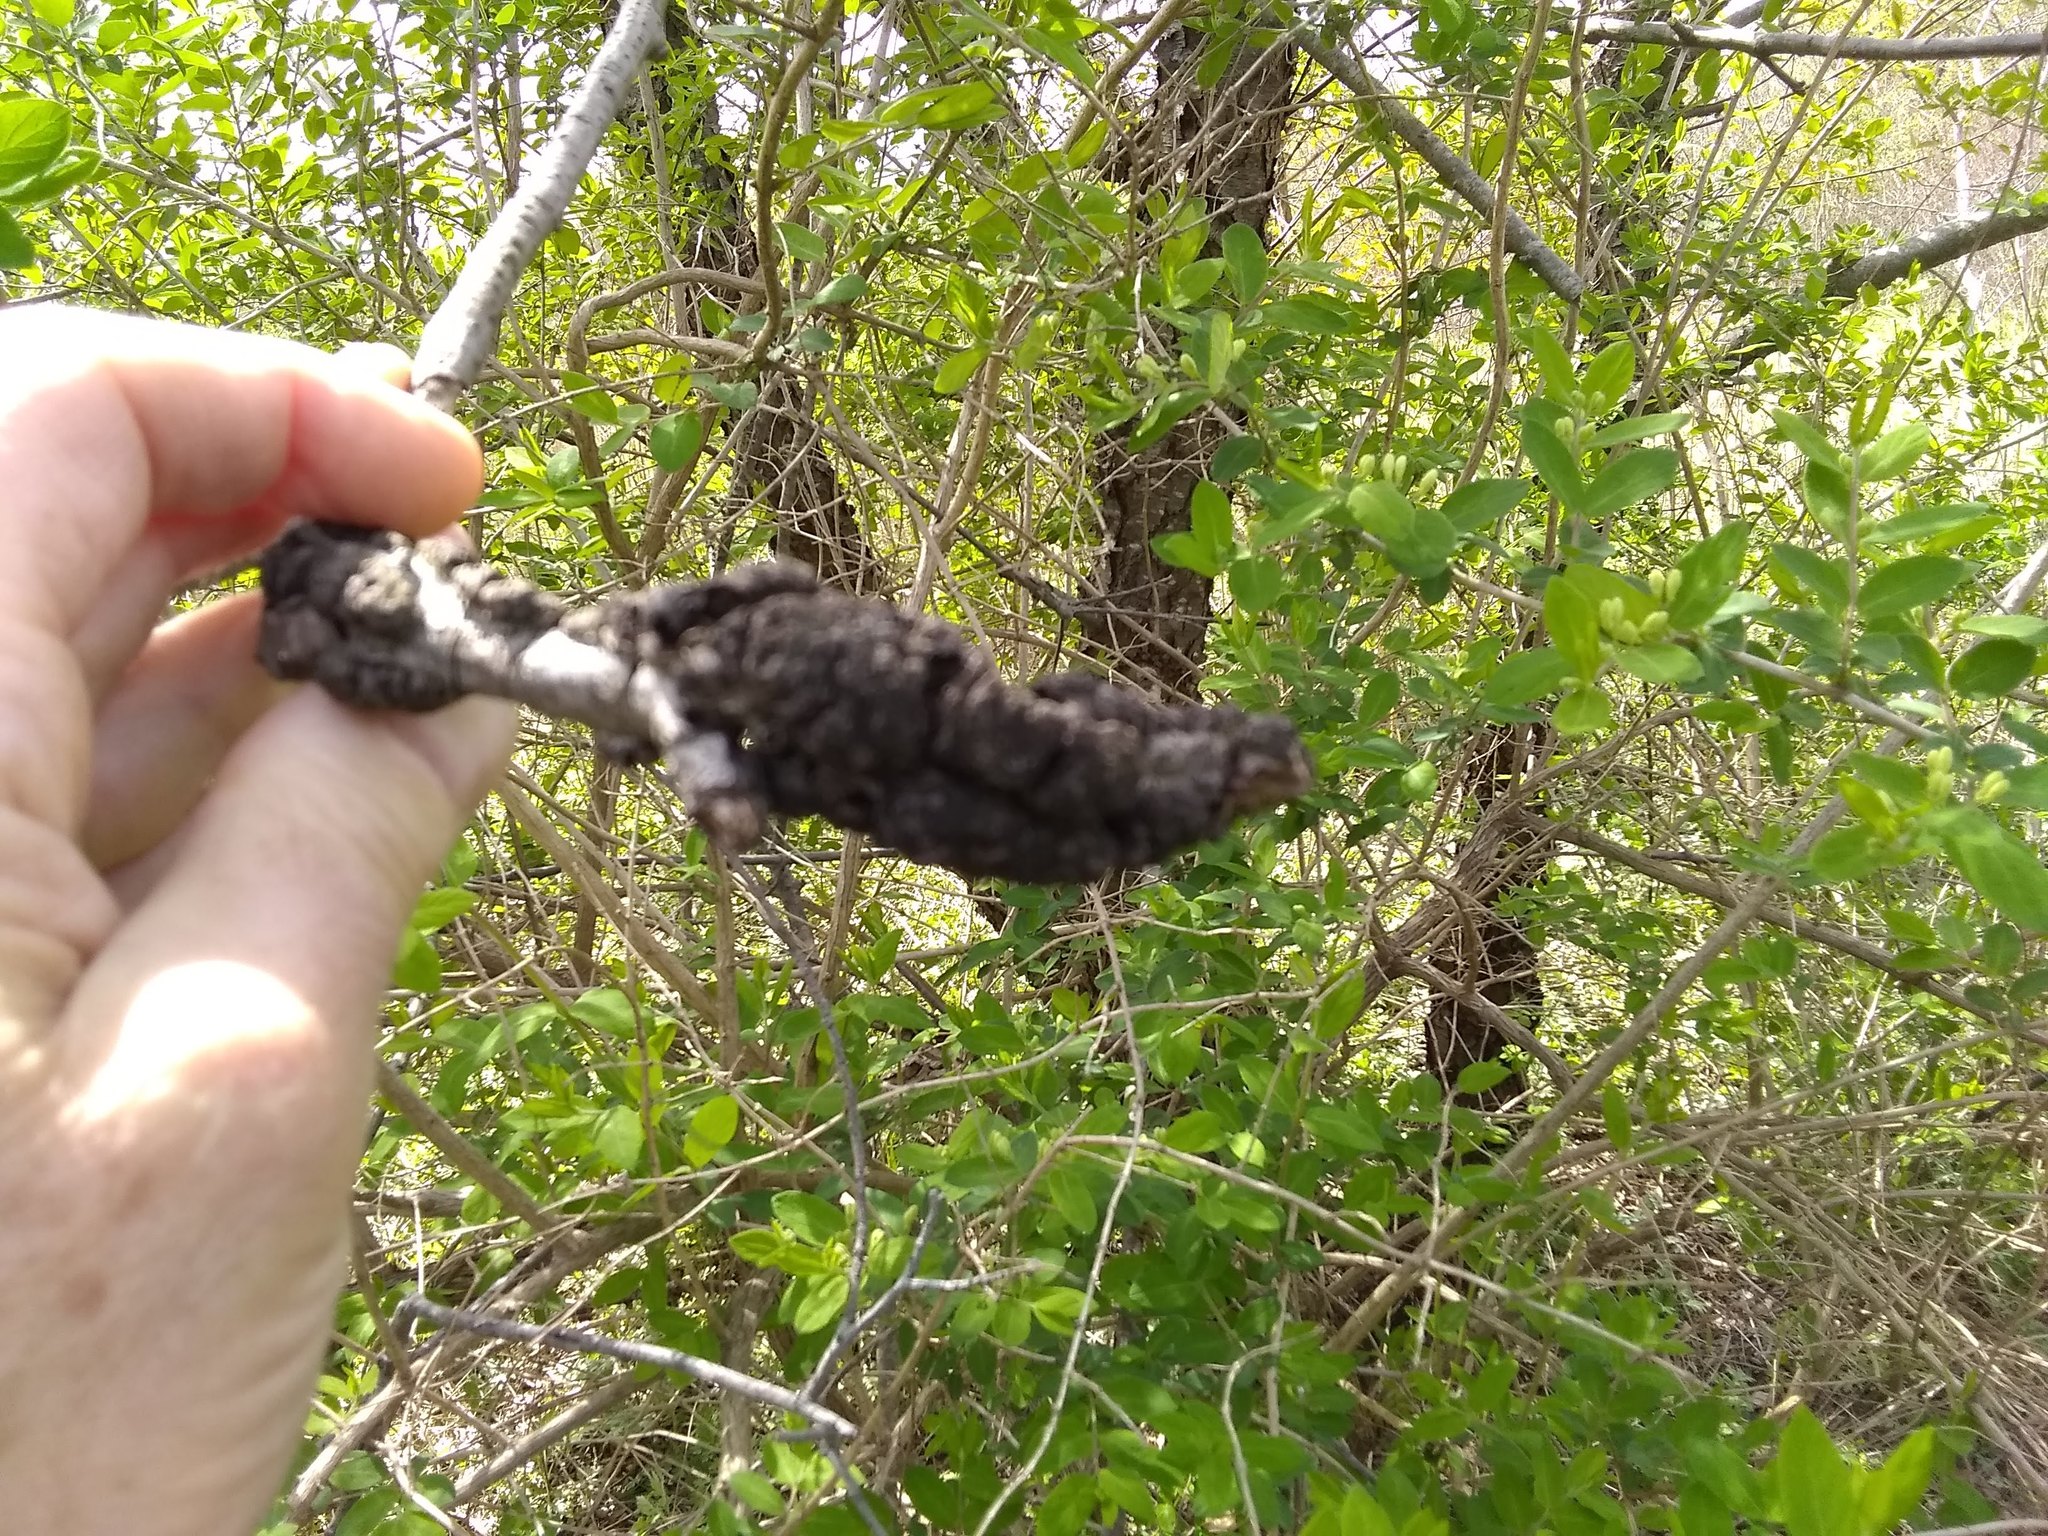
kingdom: Fungi
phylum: Ascomycota
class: Dothideomycetes
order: Venturiales
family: Venturiaceae
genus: Apiosporina
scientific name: Apiosporina morbosa
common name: Black knot
